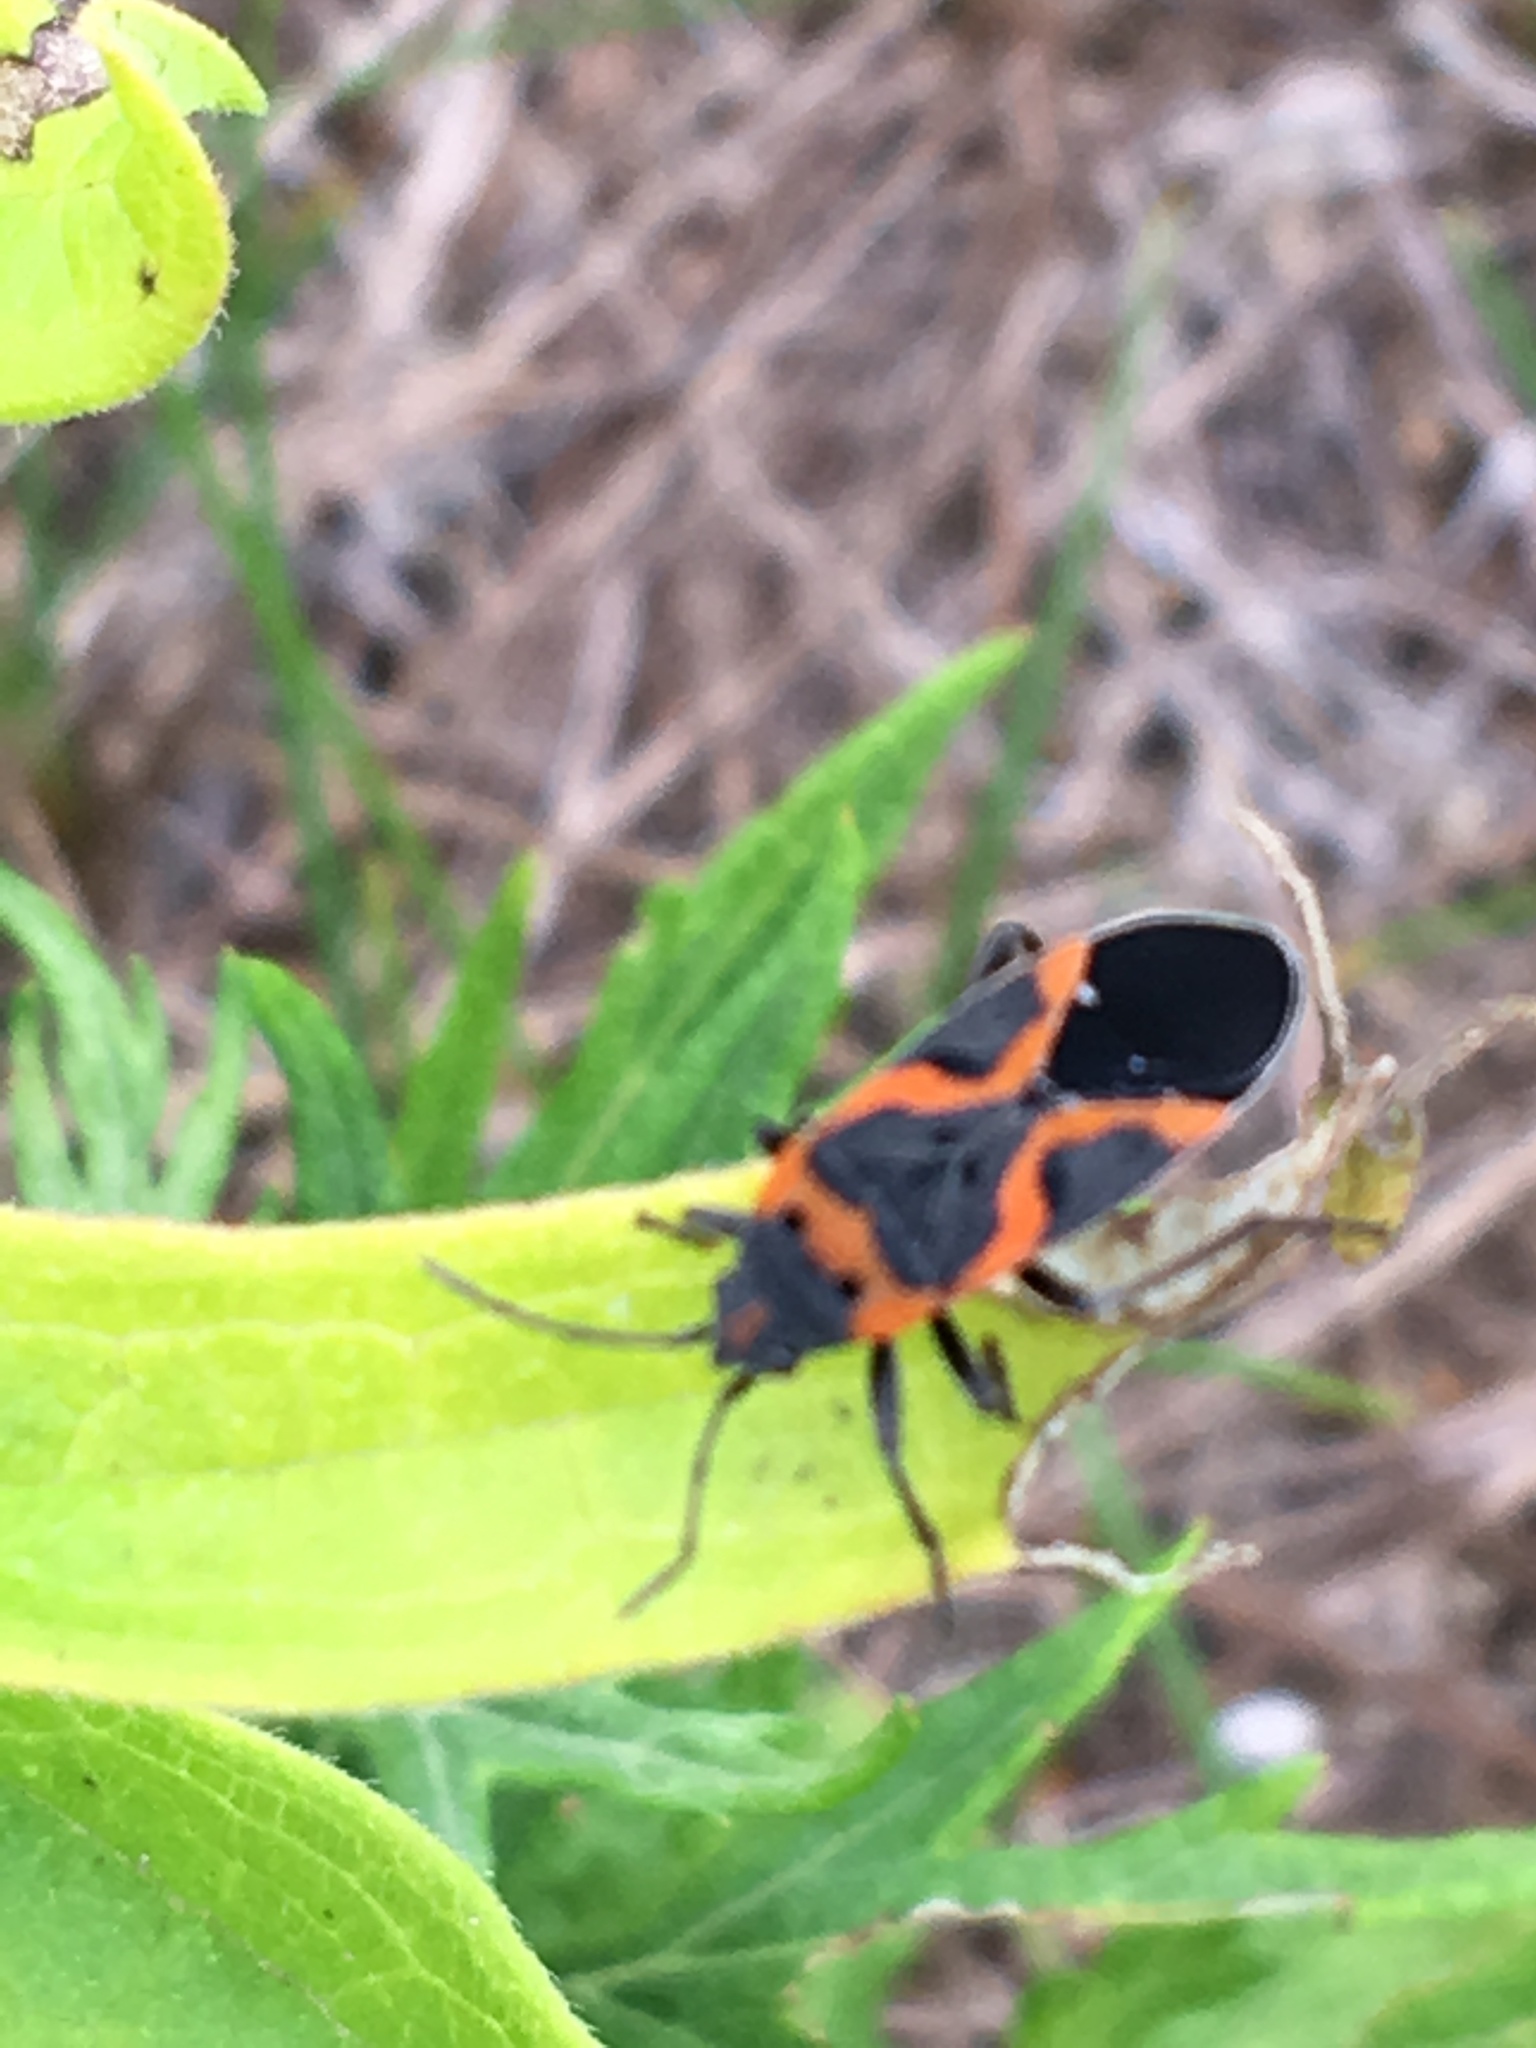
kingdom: Animalia
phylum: Arthropoda
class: Insecta
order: Hemiptera
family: Lygaeidae
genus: Lygaeus
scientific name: Lygaeus kalmii
